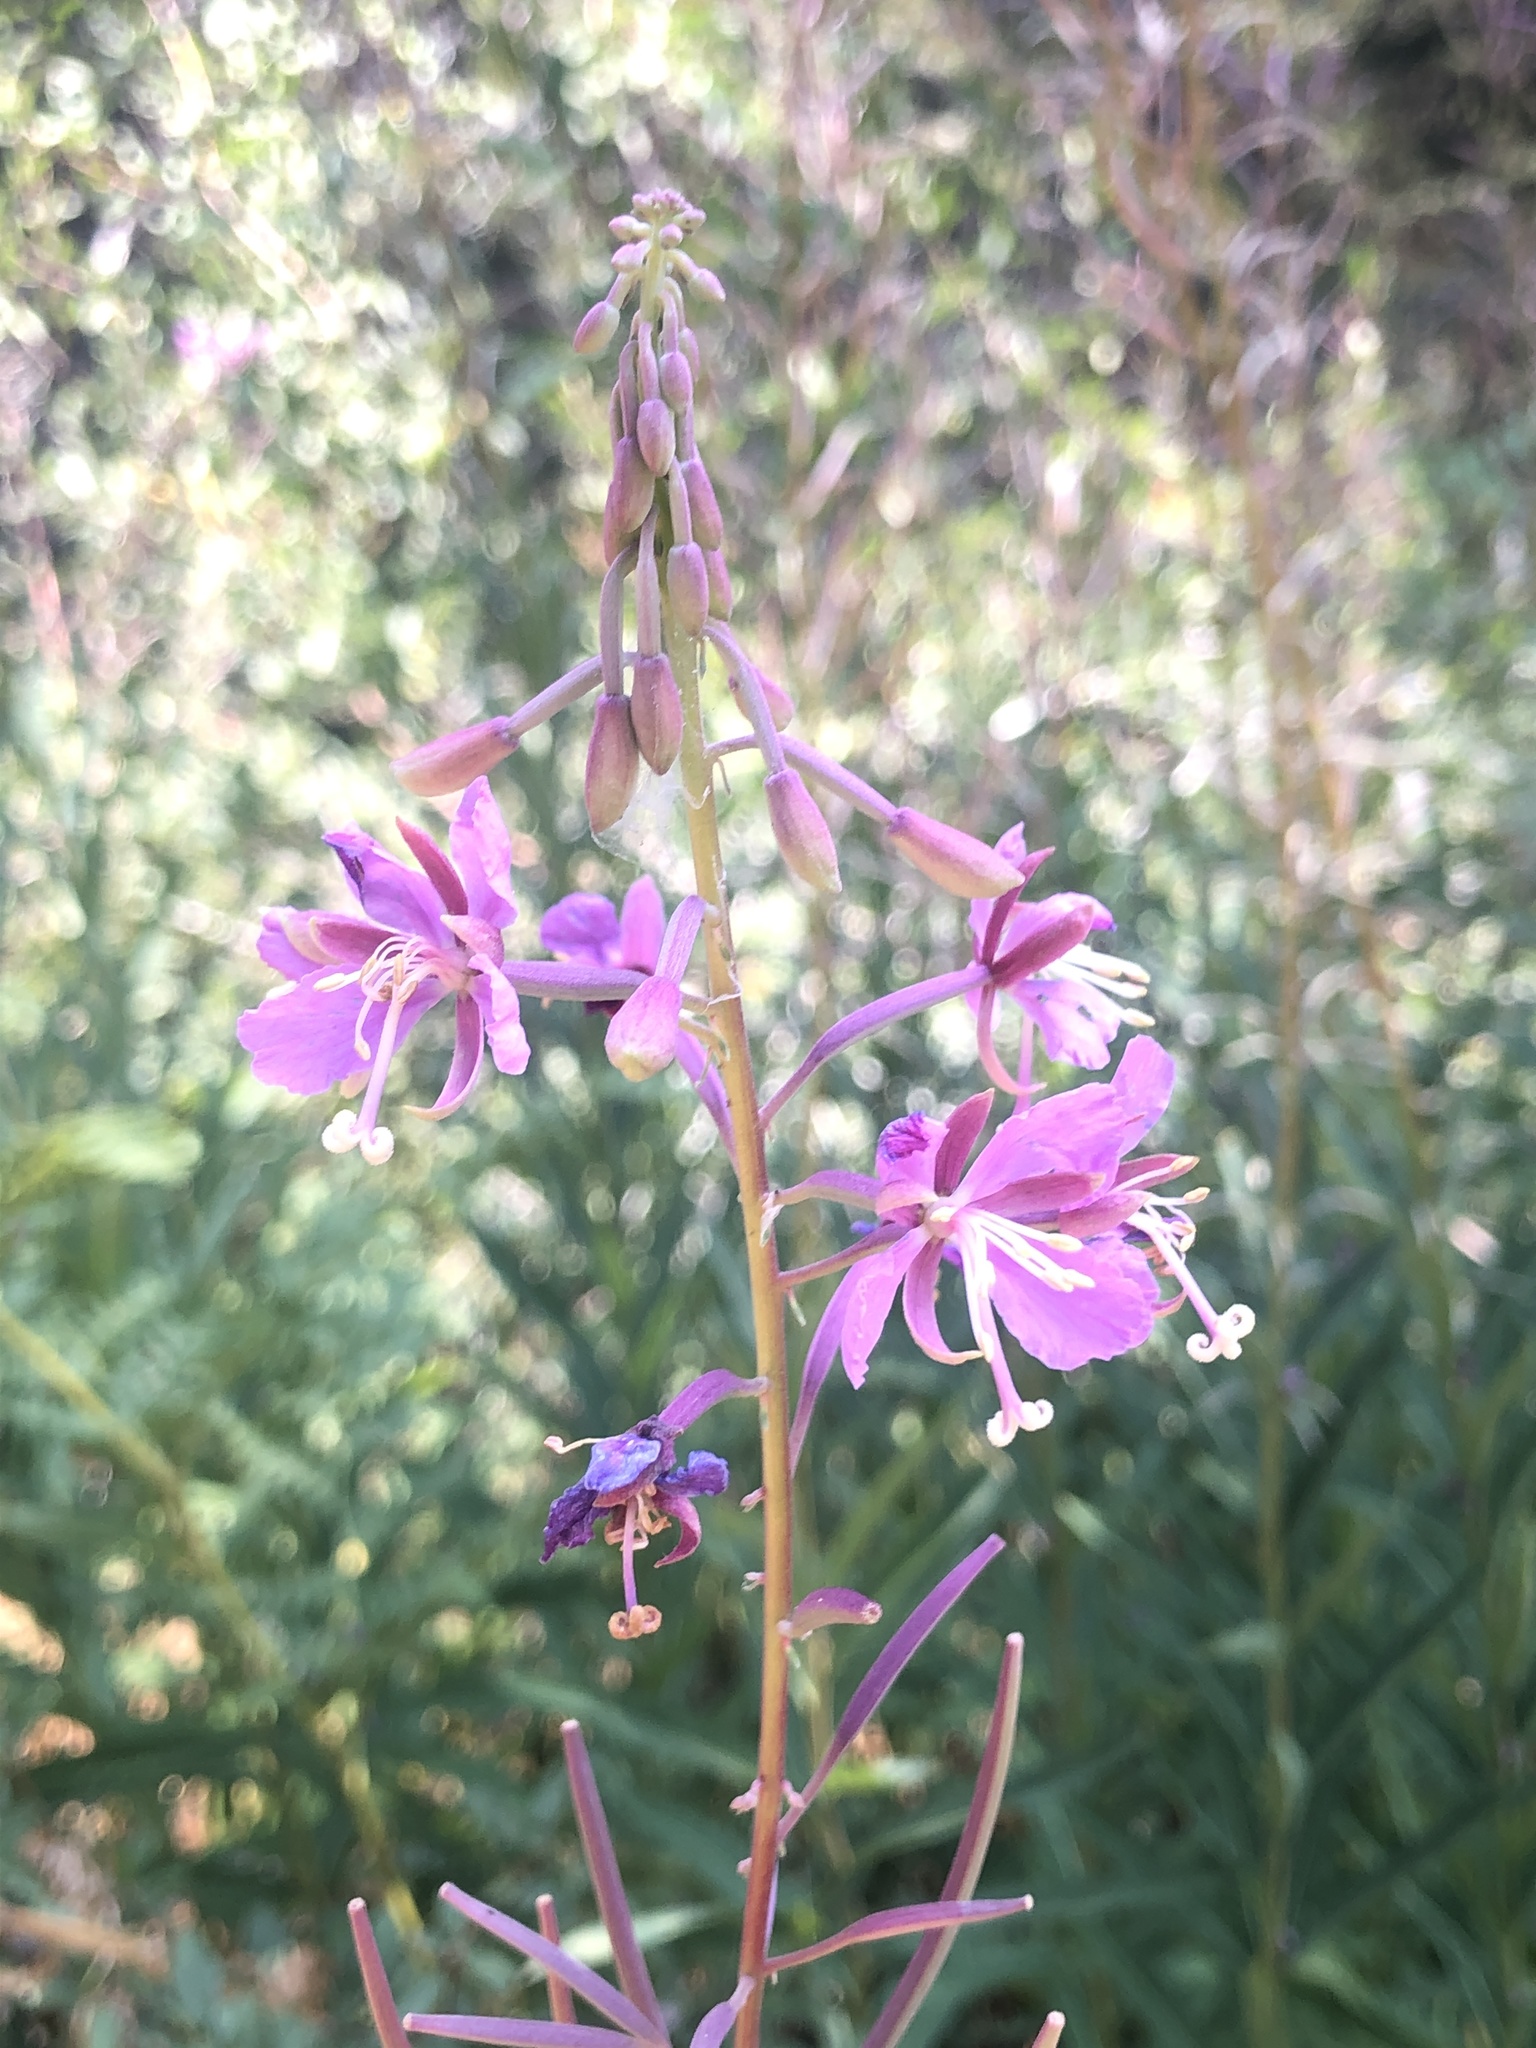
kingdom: Plantae
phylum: Tracheophyta
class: Magnoliopsida
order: Myrtales
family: Onagraceae
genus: Chamaenerion
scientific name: Chamaenerion angustifolium
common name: Fireweed
